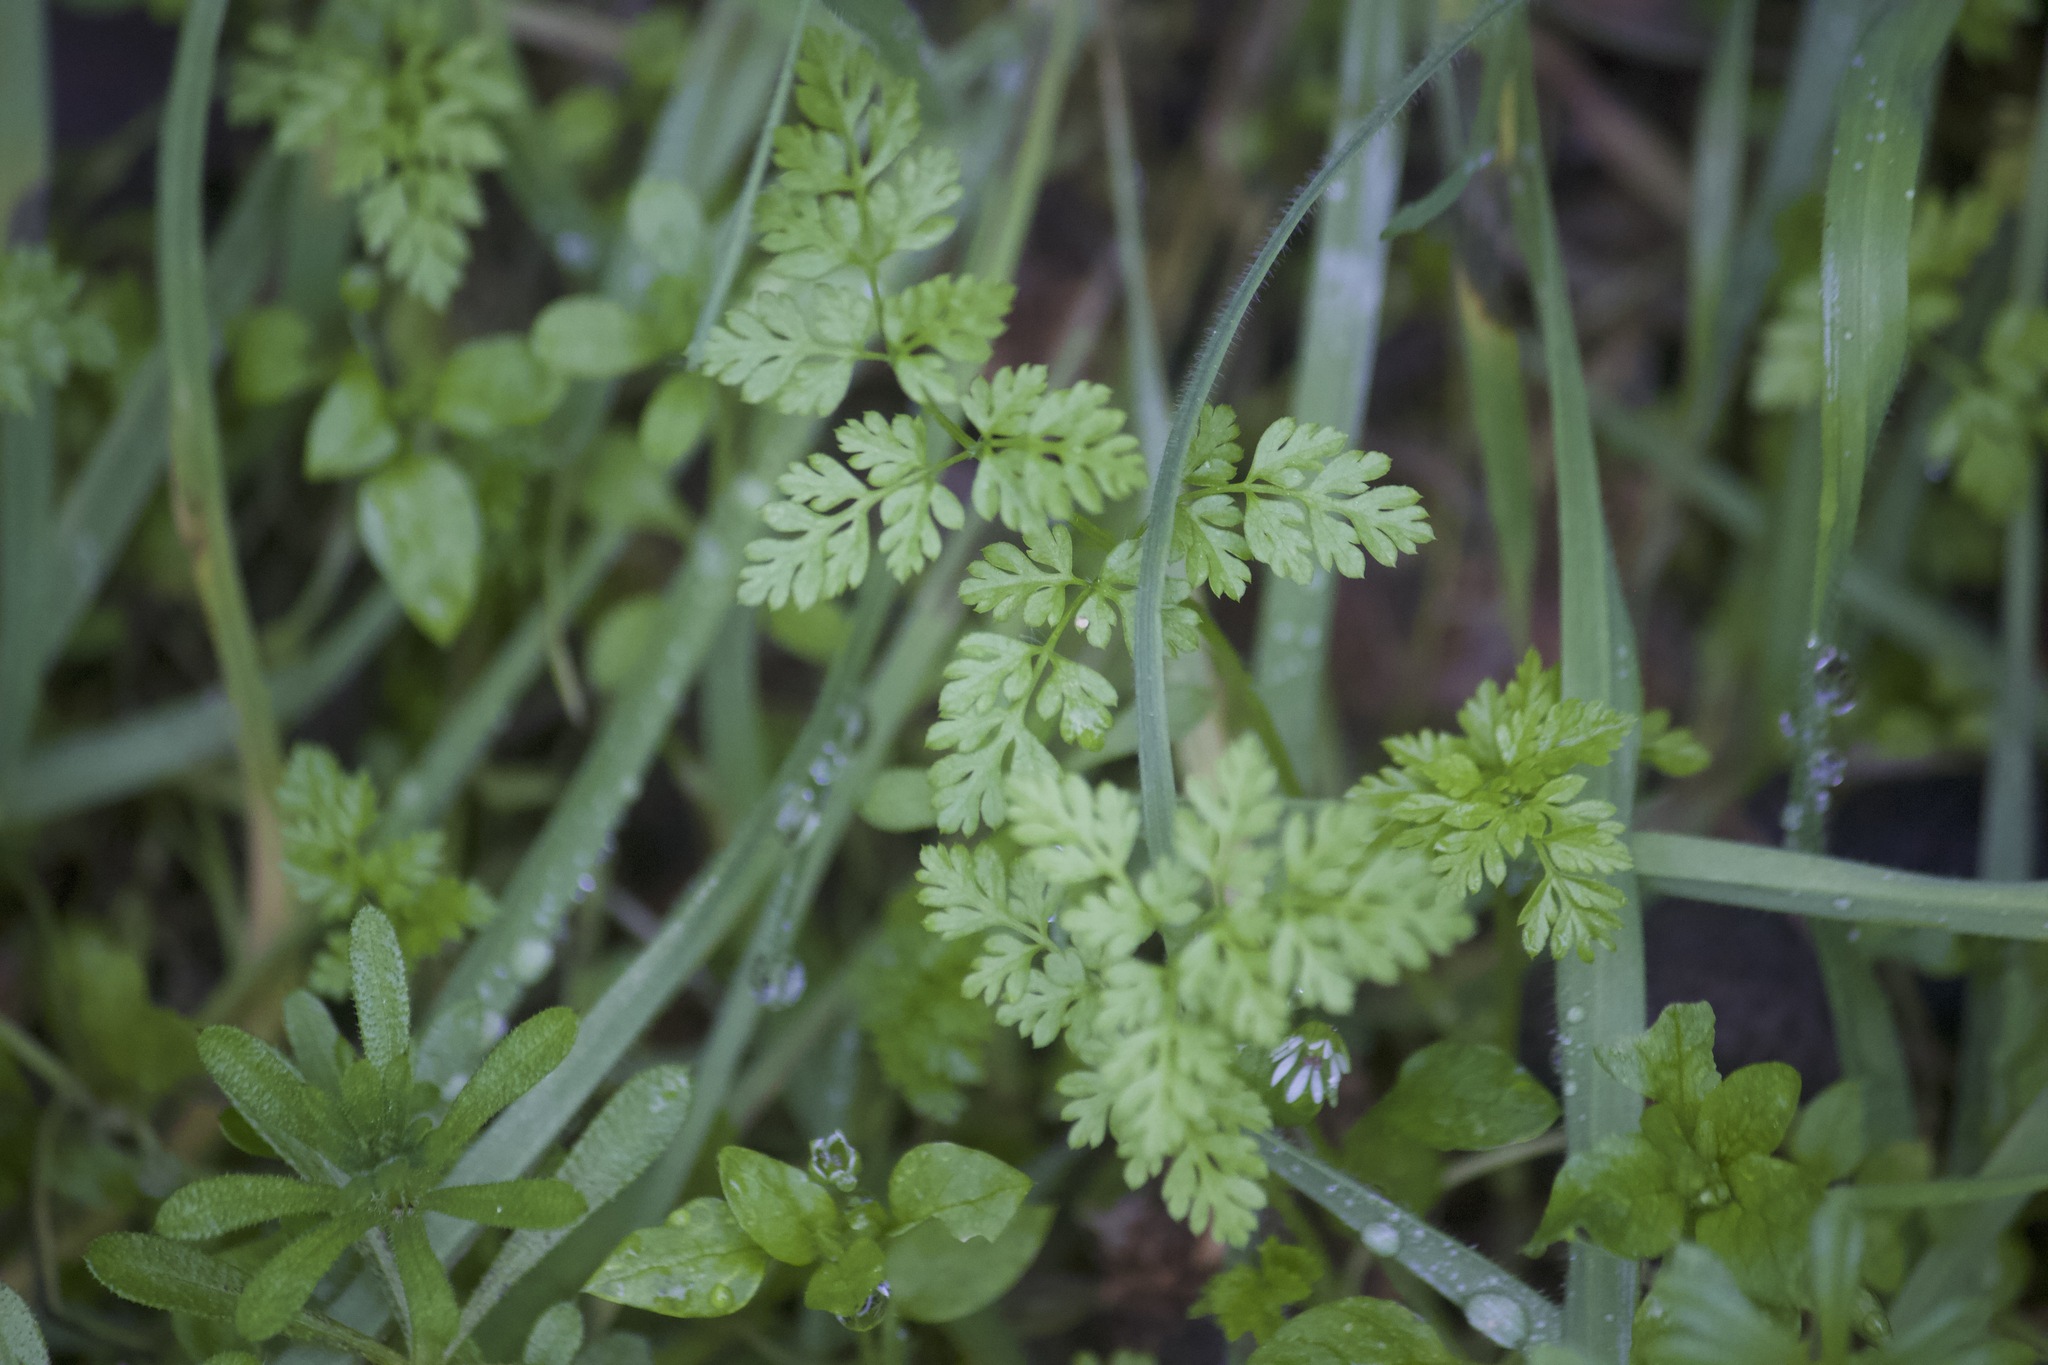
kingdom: Plantae
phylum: Tracheophyta
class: Magnoliopsida
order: Apiales
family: Apiaceae
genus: Anthriscus
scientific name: Anthriscus caucalis
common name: Bur chervil
